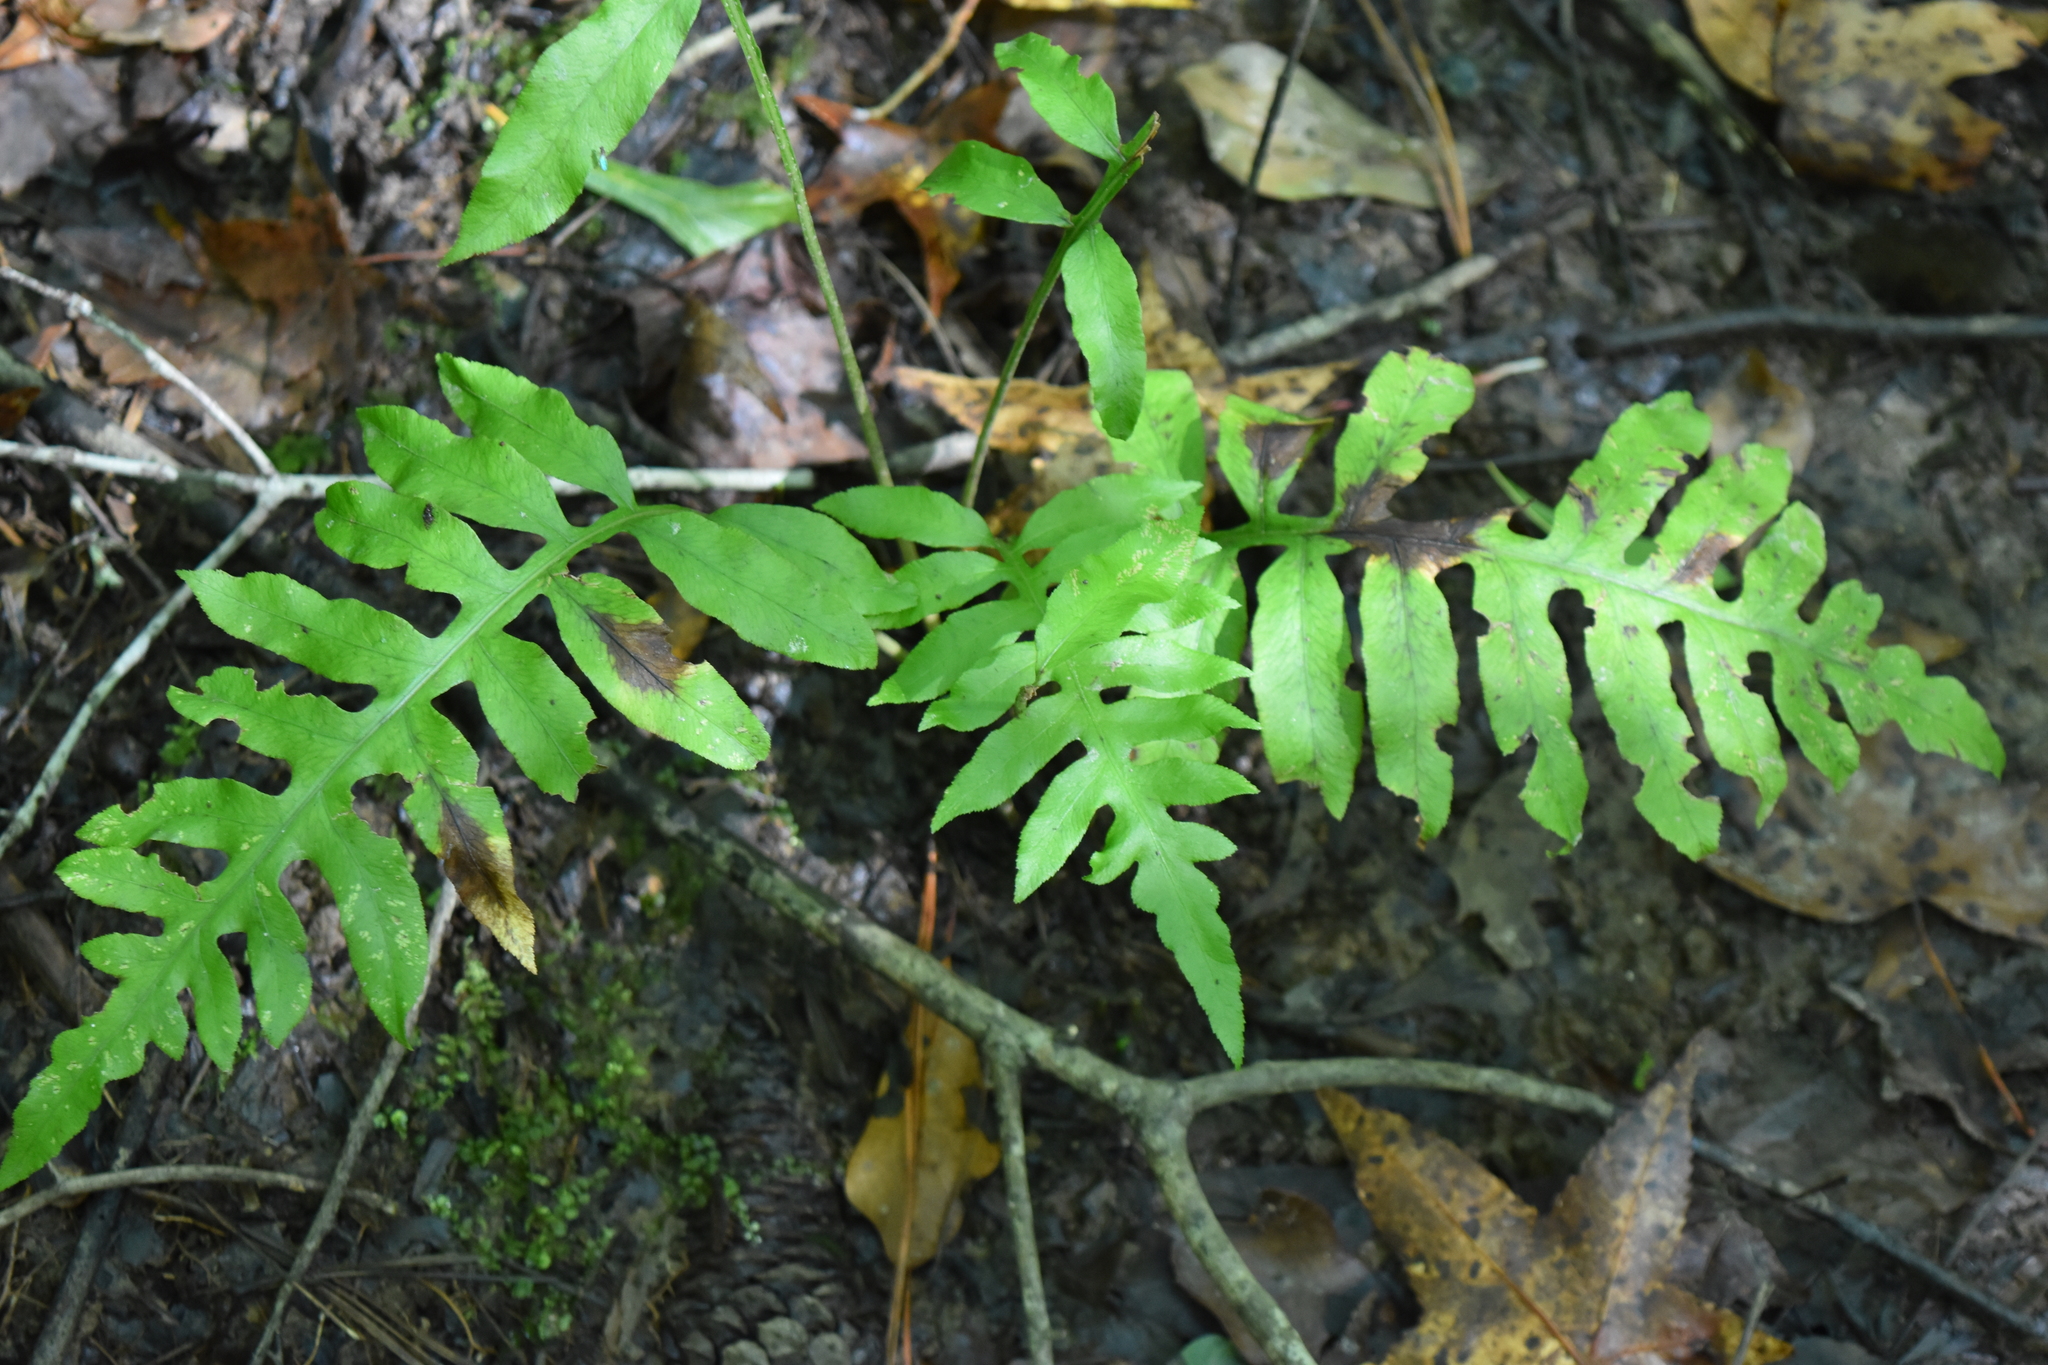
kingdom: Plantae
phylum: Tracheophyta
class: Polypodiopsida
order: Polypodiales
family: Blechnaceae
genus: Lorinseria
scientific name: Lorinseria areolata
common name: Dwarf chain fern
